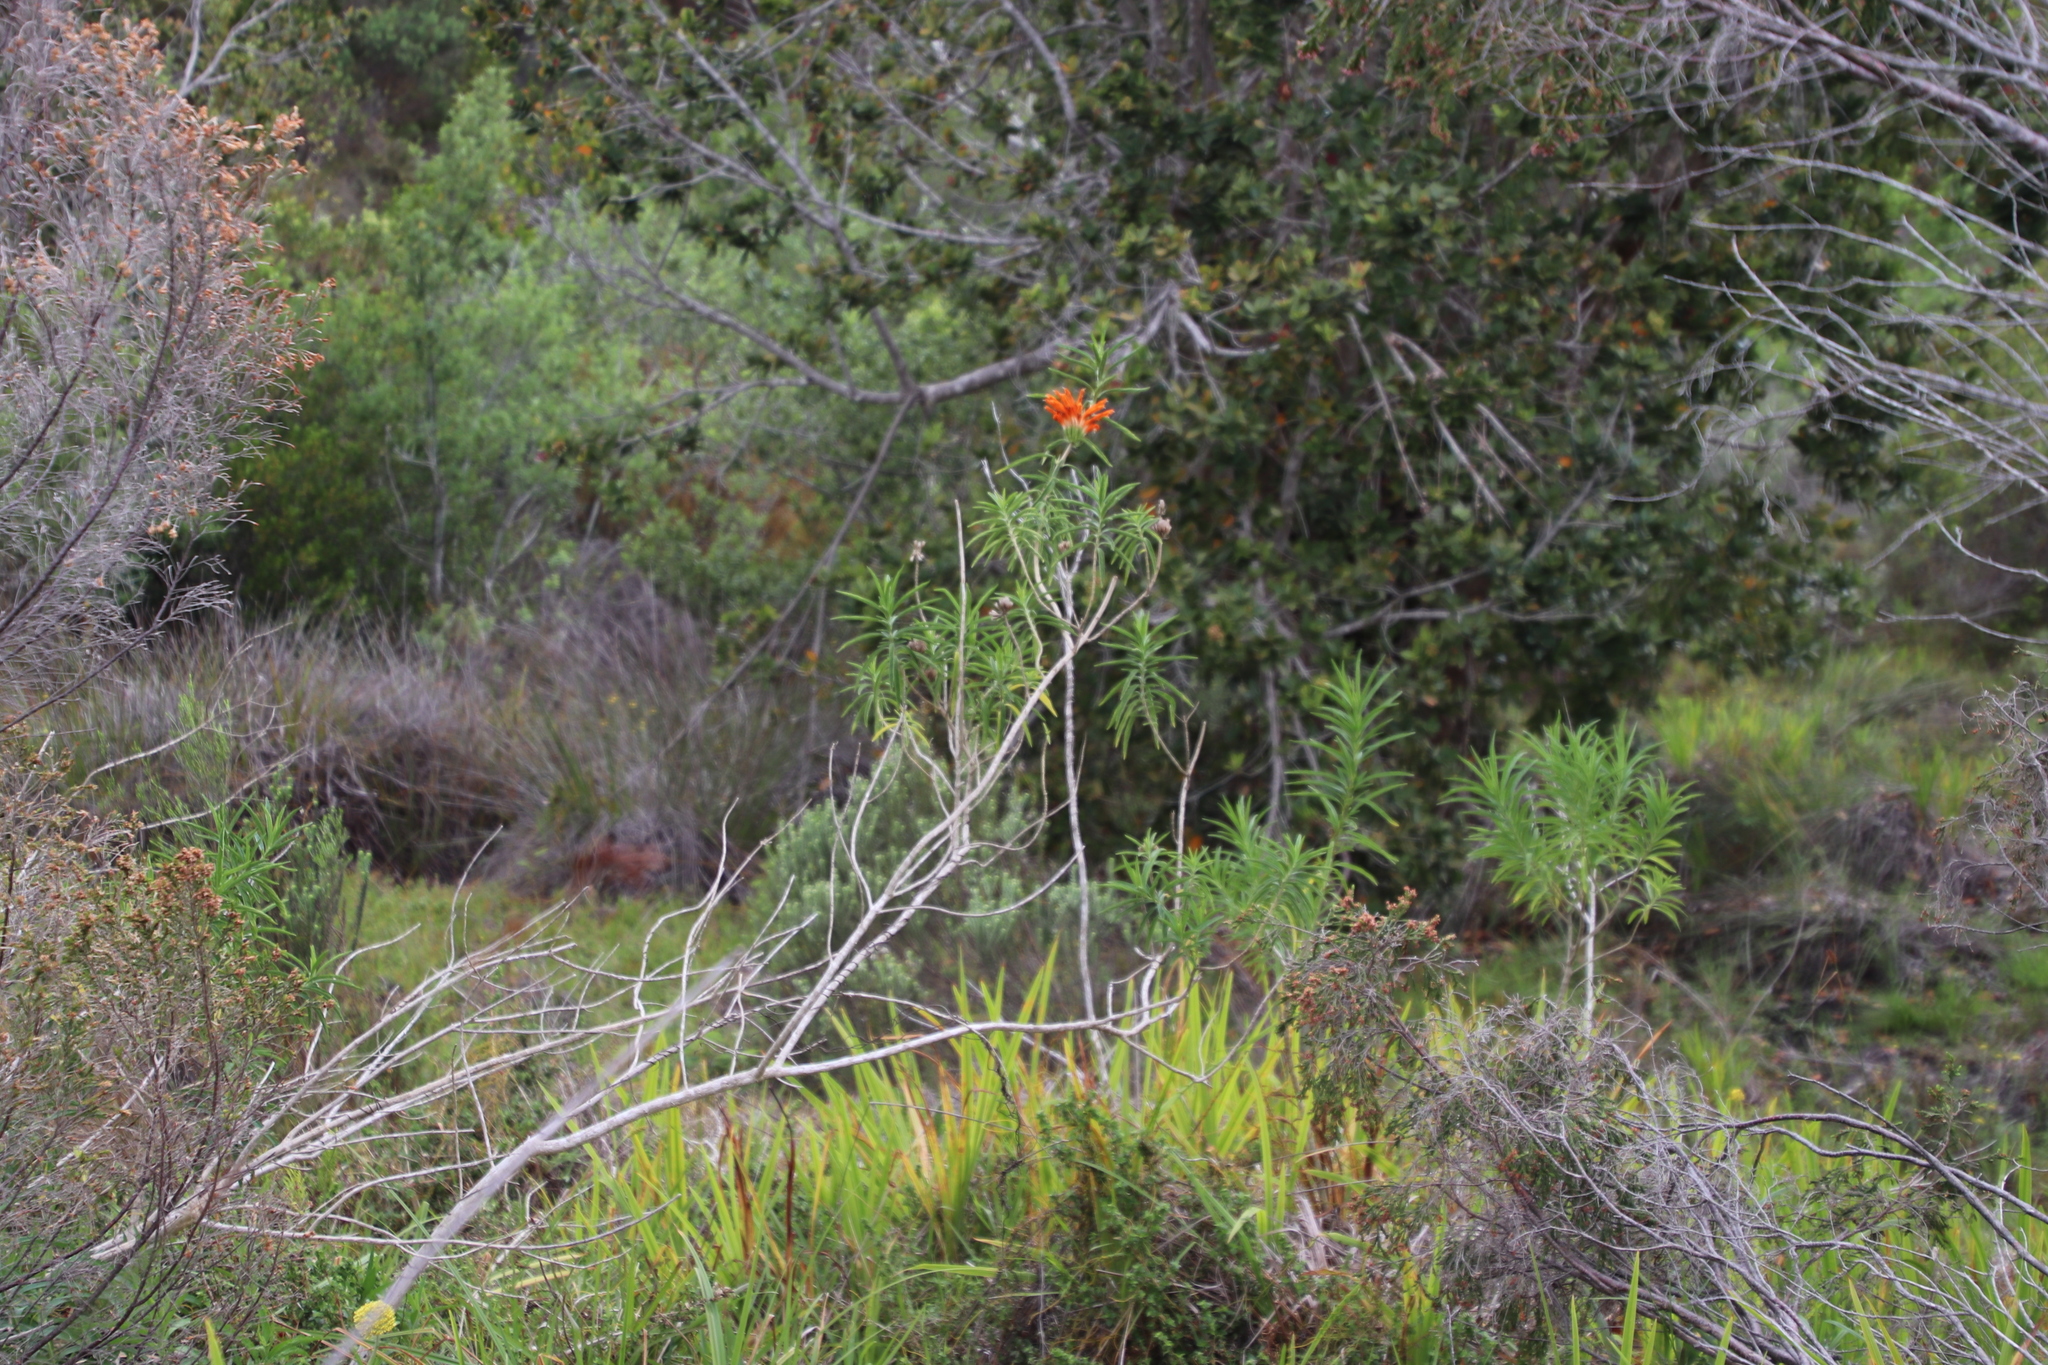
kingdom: Plantae
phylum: Tracheophyta
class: Magnoliopsida
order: Lamiales
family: Lamiaceae
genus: Leonotis
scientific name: Leonotis leonurus
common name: Lion's ear
